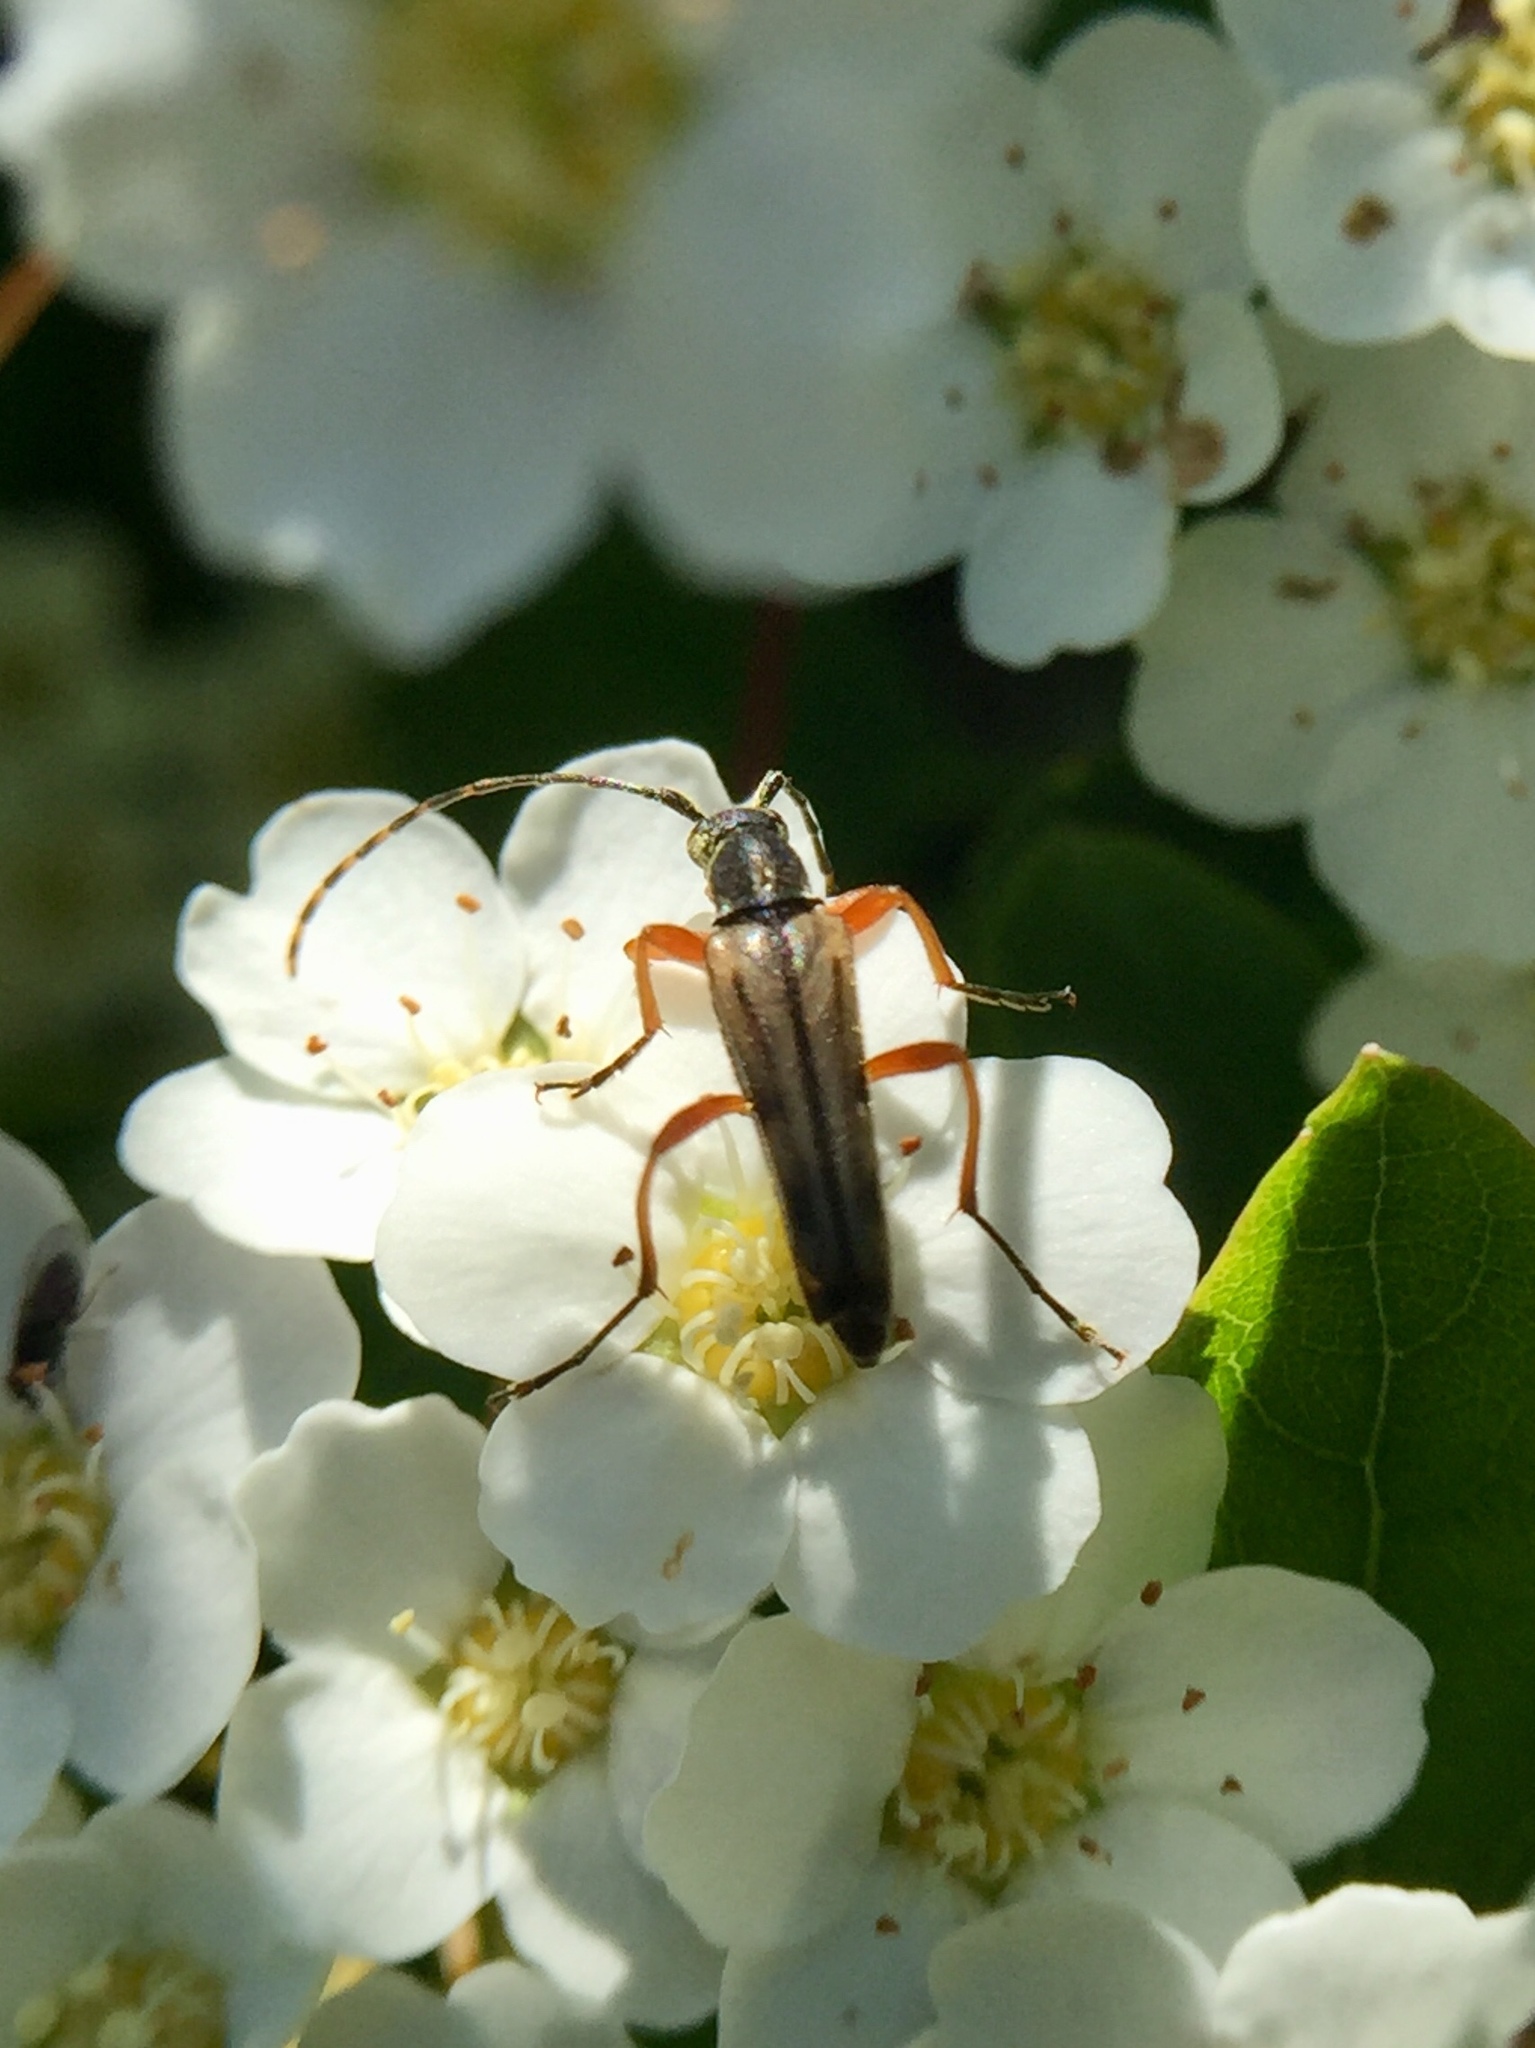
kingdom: Animalia
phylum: Arthropoda
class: Insecta
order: Coleoptera
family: Cerambycidae
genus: Analeptura
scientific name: Analeptura lineola
